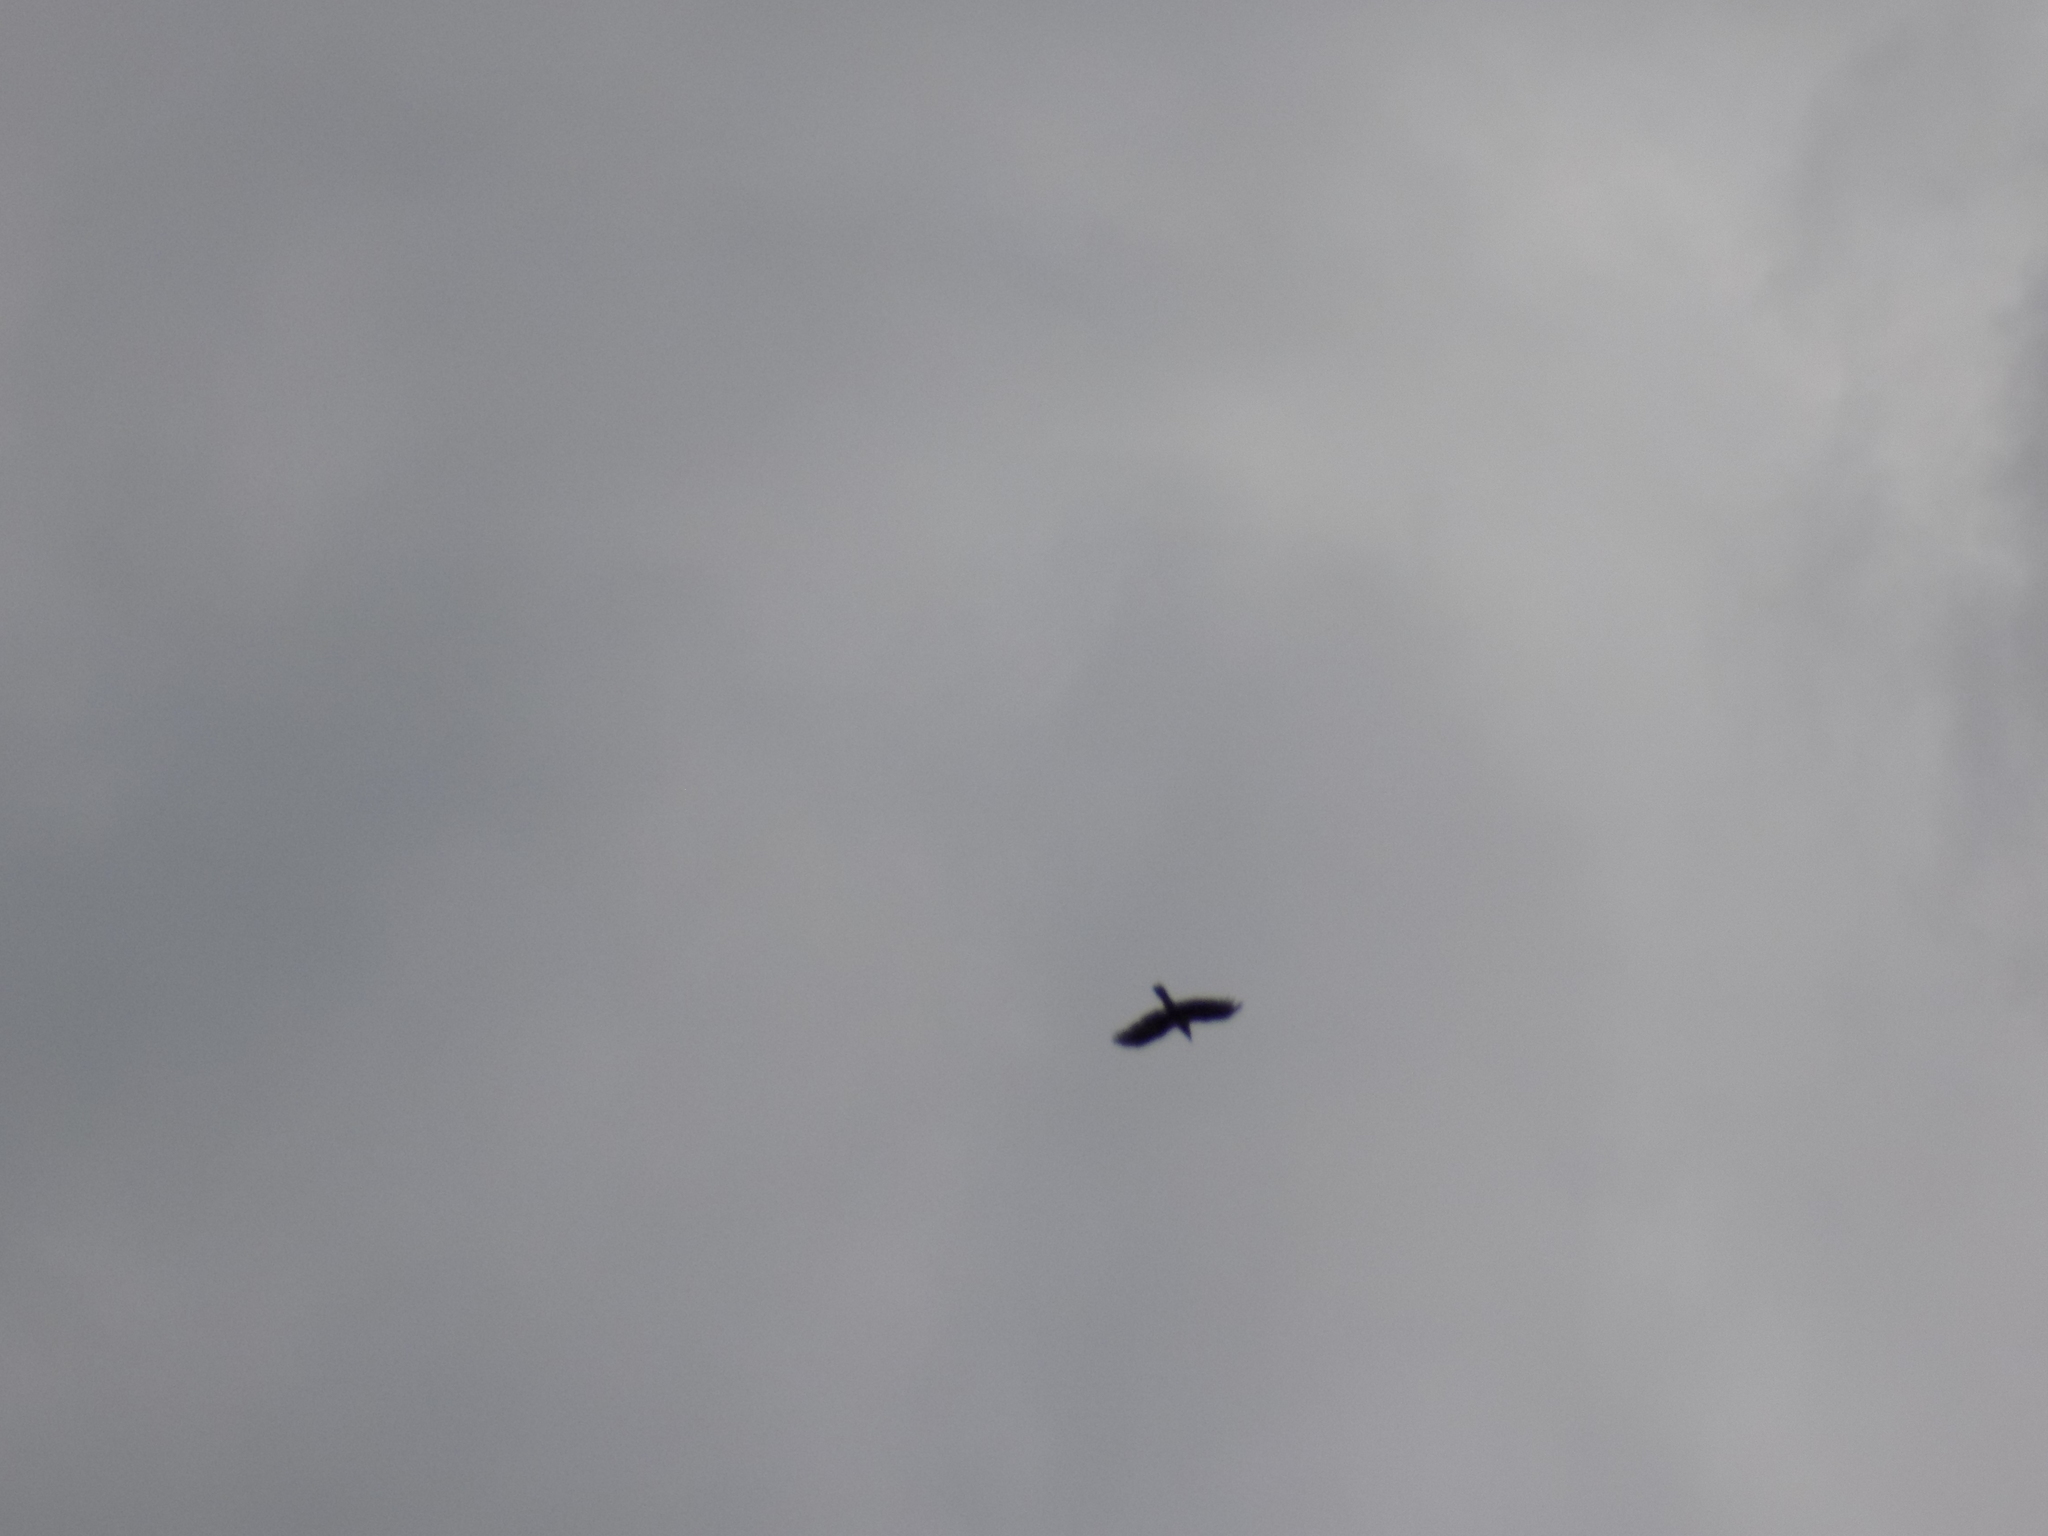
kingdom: Animalia
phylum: Chordata
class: Aves
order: Passeriformes
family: Corvidae
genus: Corvus
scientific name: Corvus corax
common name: Common raven
